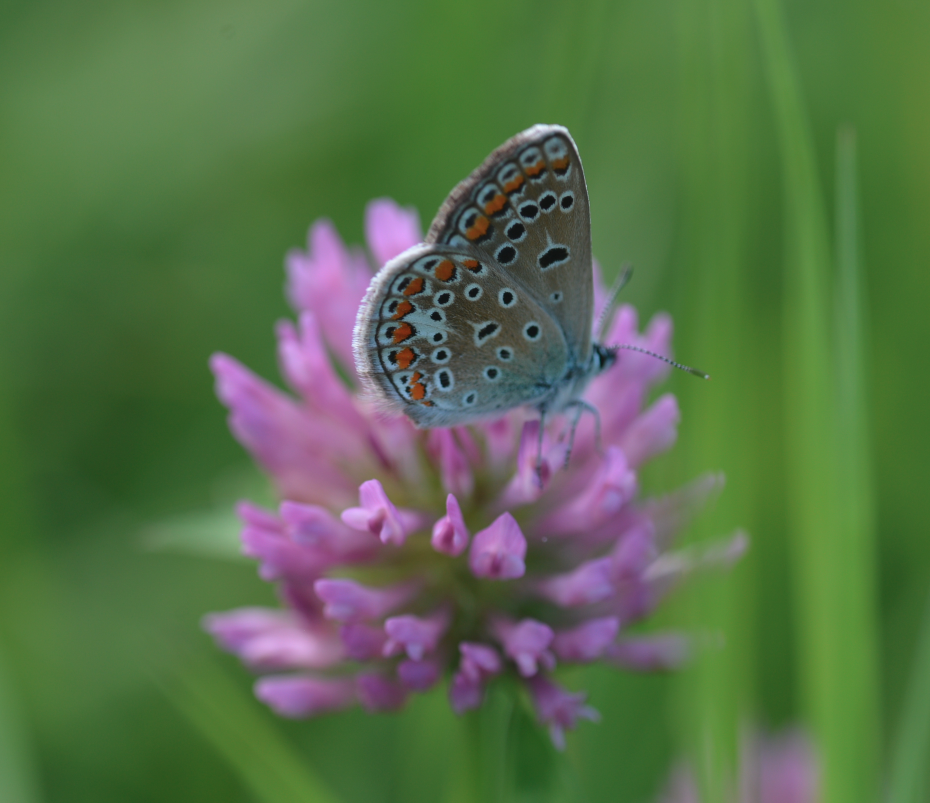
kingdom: Animalia
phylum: Arthropoda
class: Insecta
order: Lepidoptera
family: Lycaenidae
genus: Polyommatus
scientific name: Polyommatus icarus
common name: Common blue
